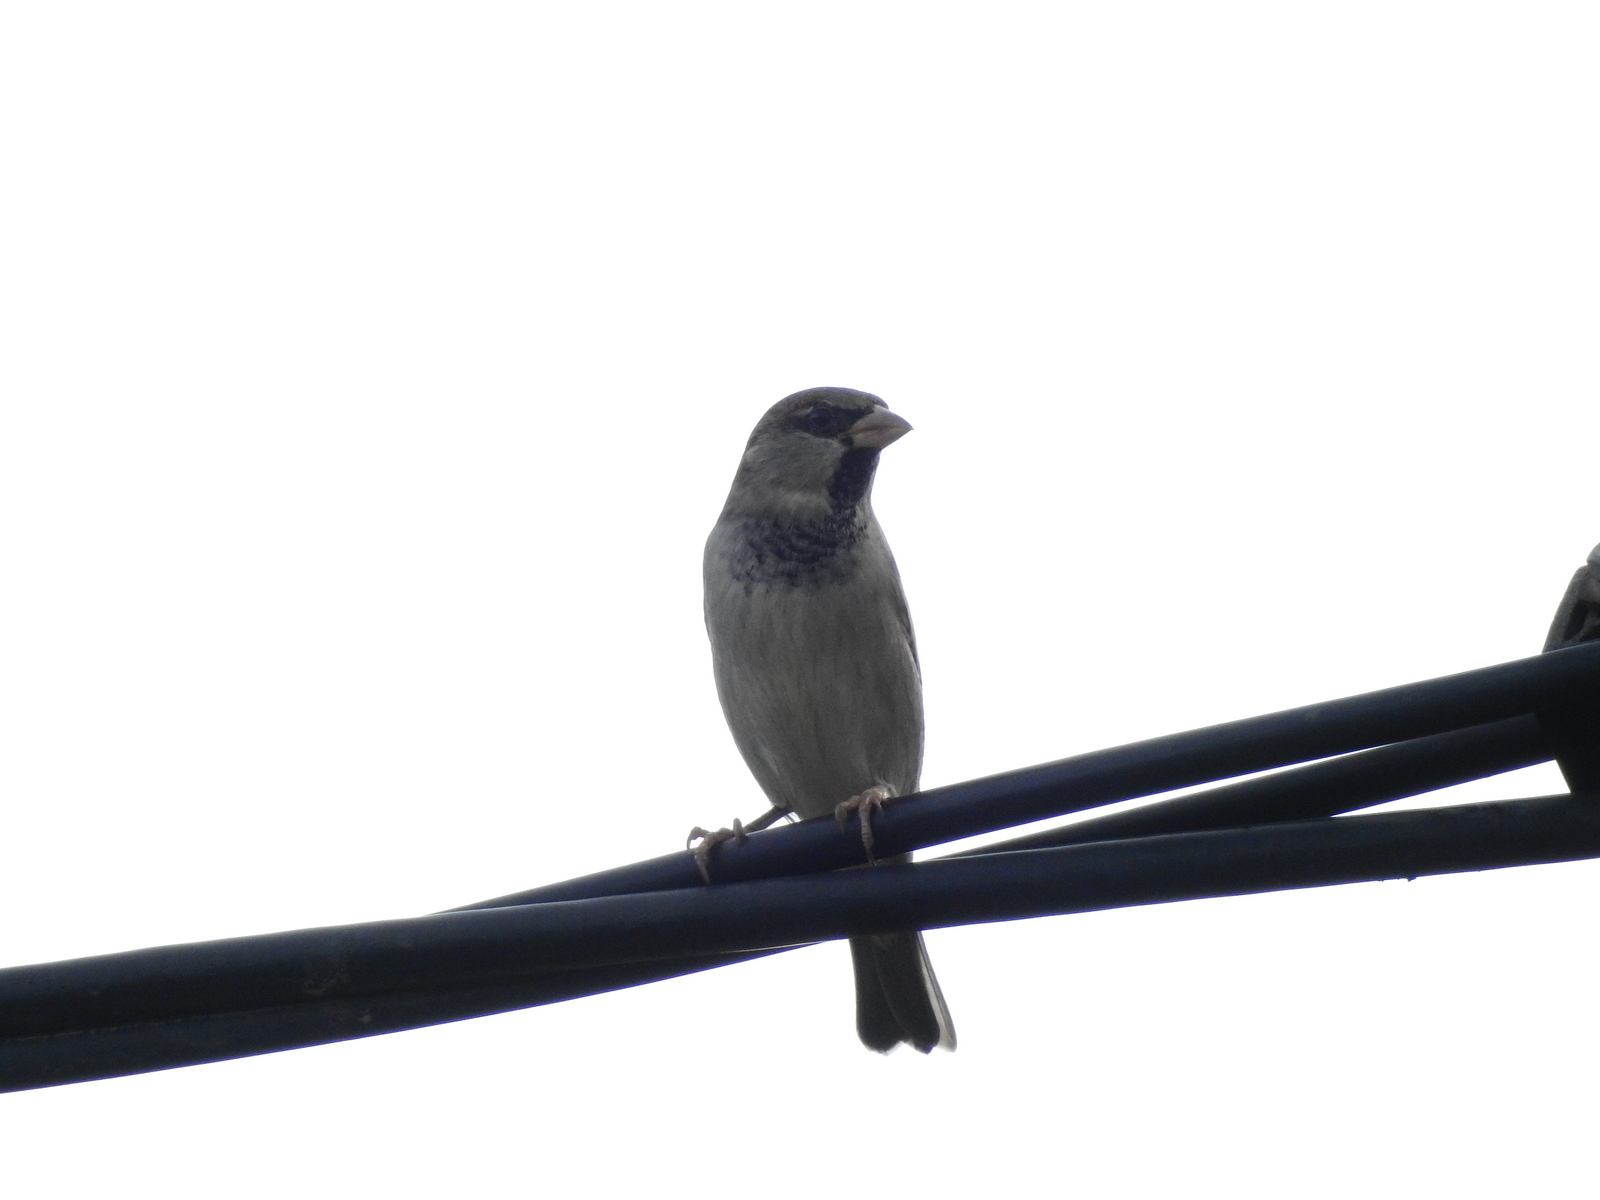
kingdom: Animalia
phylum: Chordata
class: Aves
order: Passeriformes
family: Passeridae
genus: Passer
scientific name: Passer domesticus
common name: House sparrow
